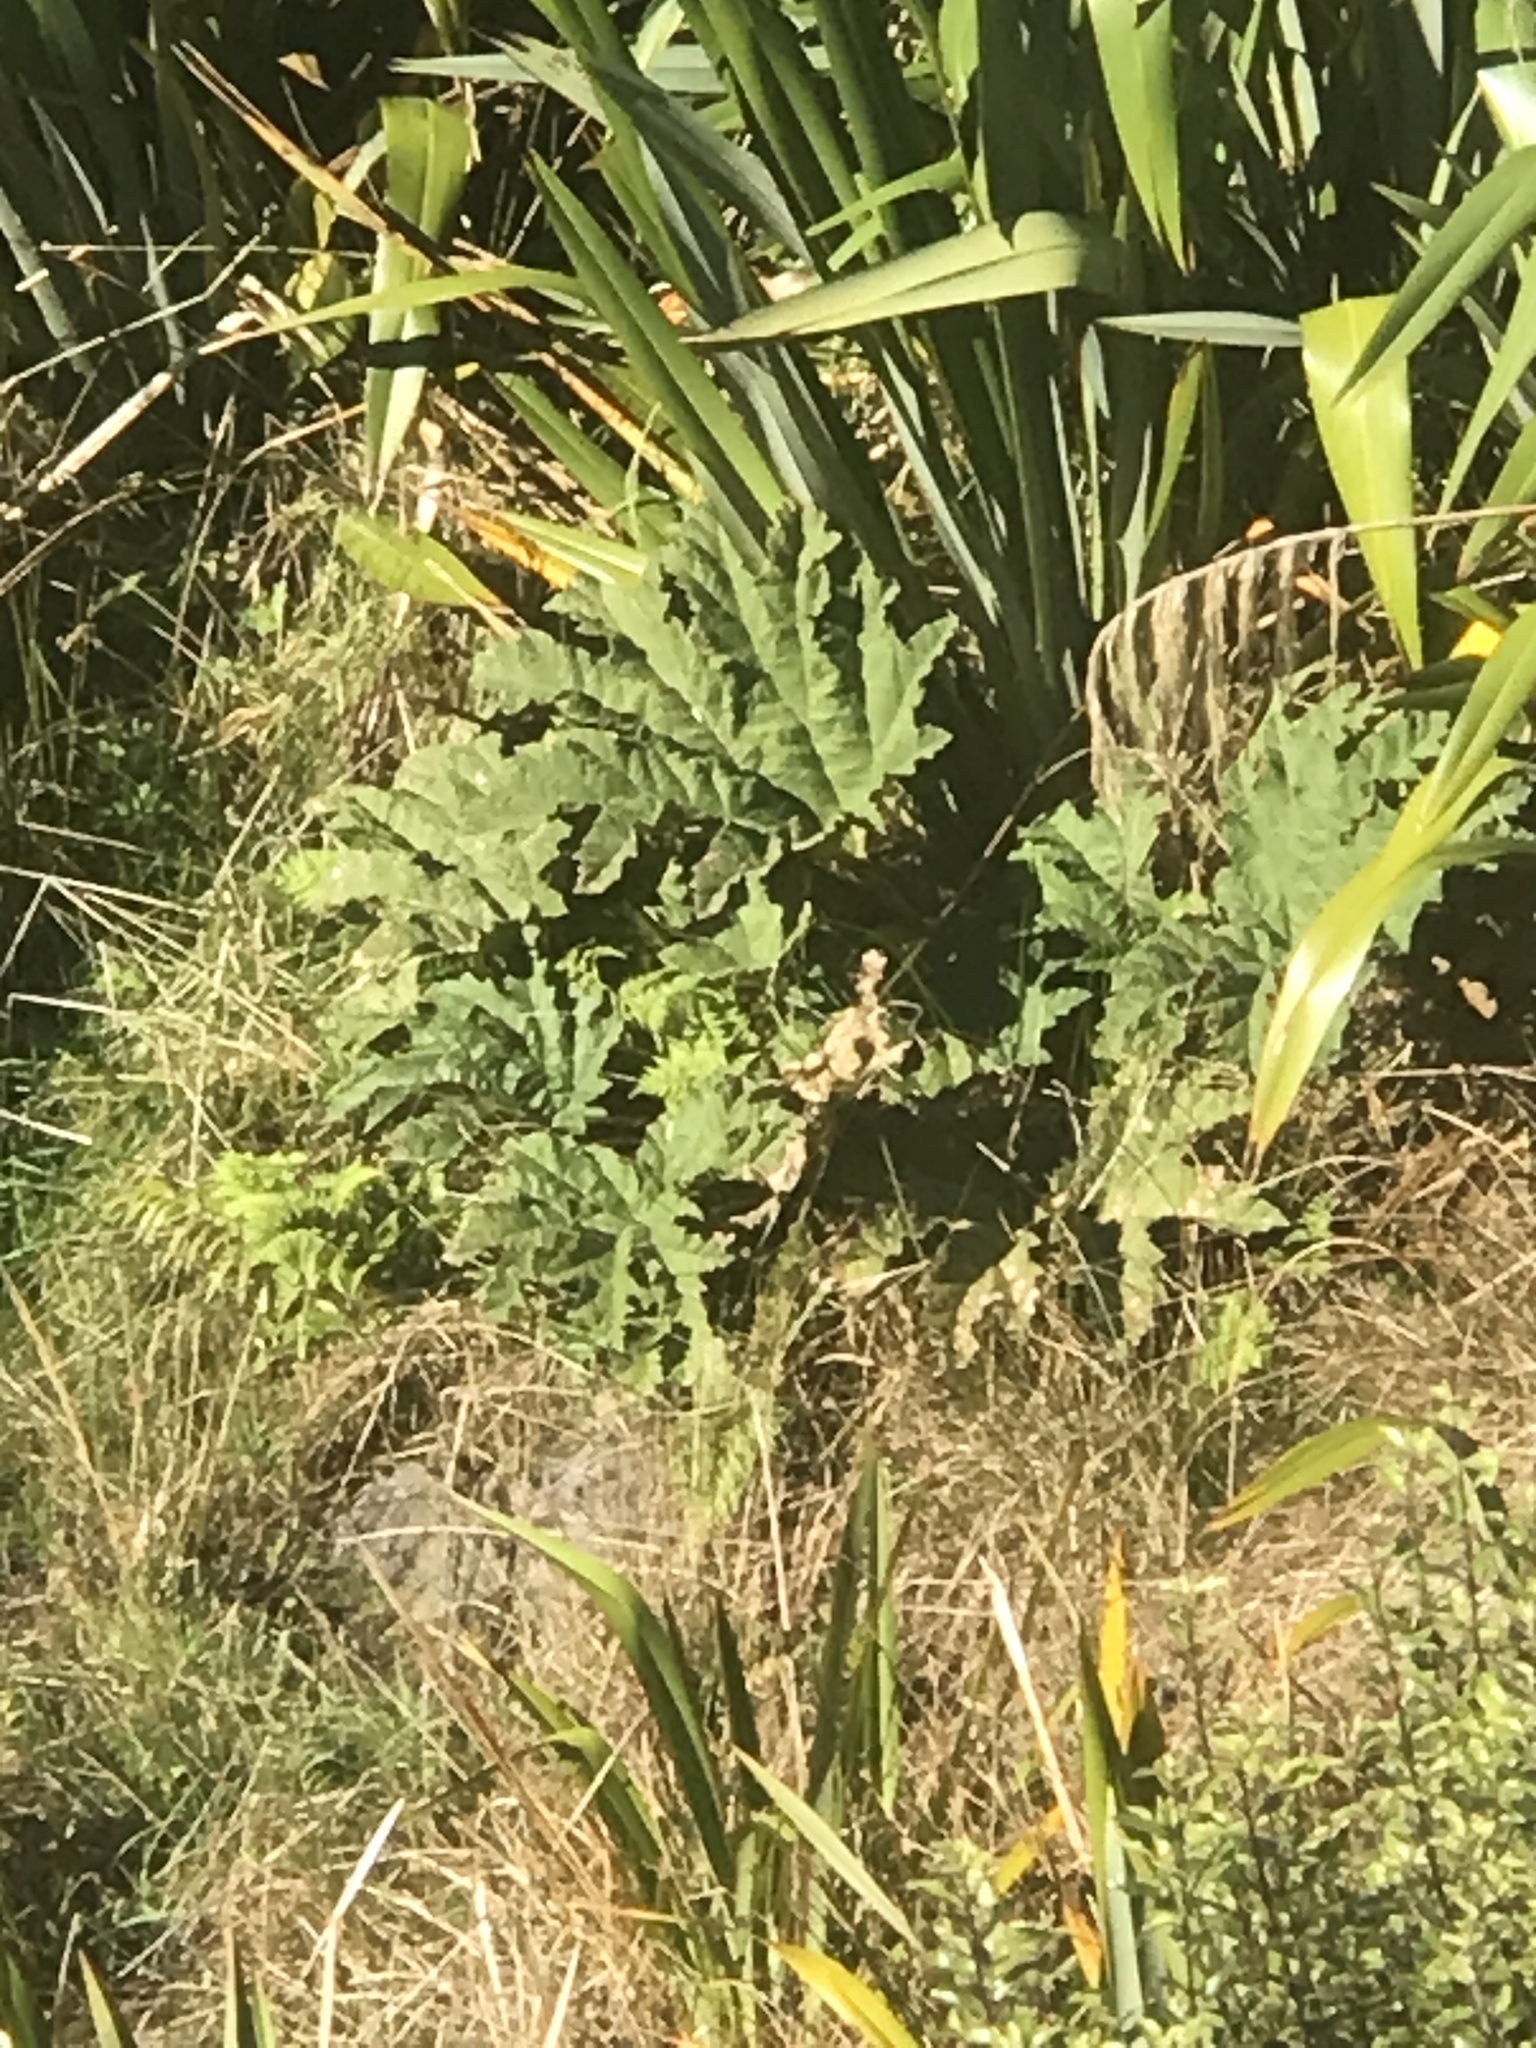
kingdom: Plantae
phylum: Tracheophyta
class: Magnoliopsida
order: Gunnerales
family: Gunneraceae
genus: Gunnera
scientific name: Gunnera tinctoria
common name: Giant-rhubarb
